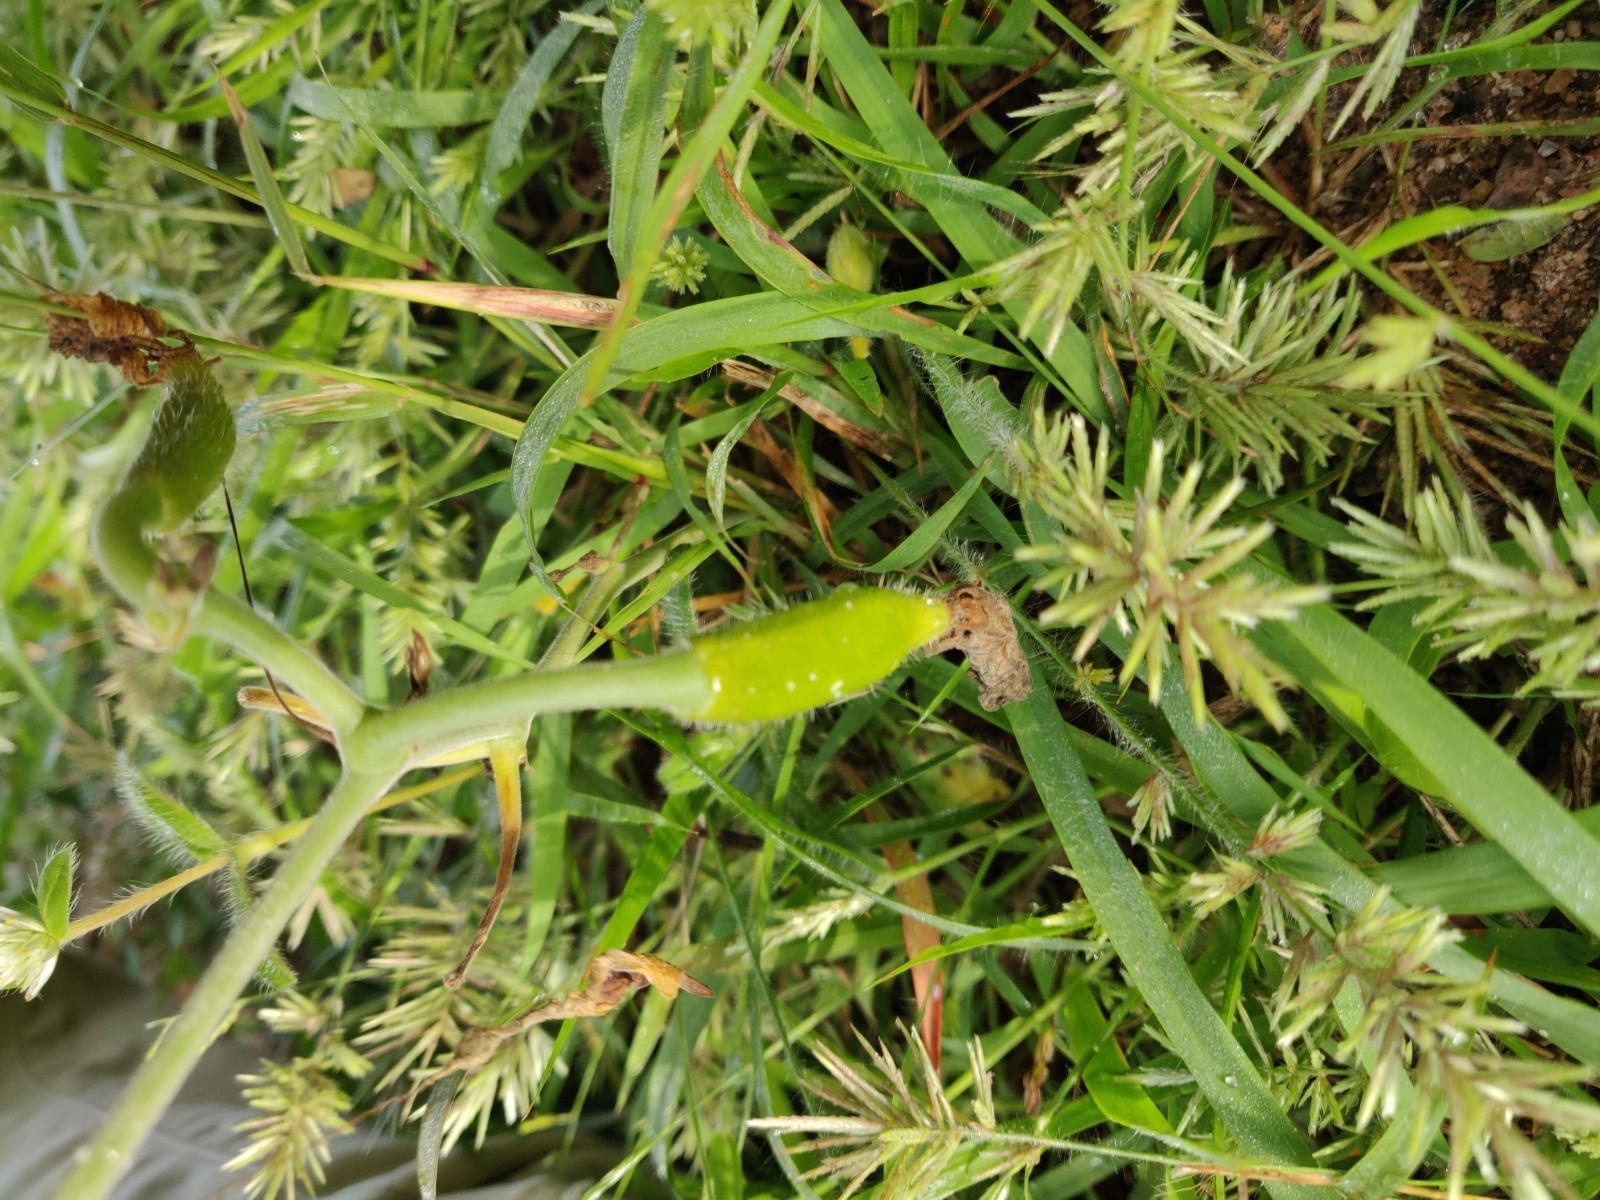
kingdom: Plantae
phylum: Tracheophyta
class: Magnoliopsida
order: Cucurbitales
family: Cucurbitaceae
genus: Eureiandra
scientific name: Eureiandra fasciculata
